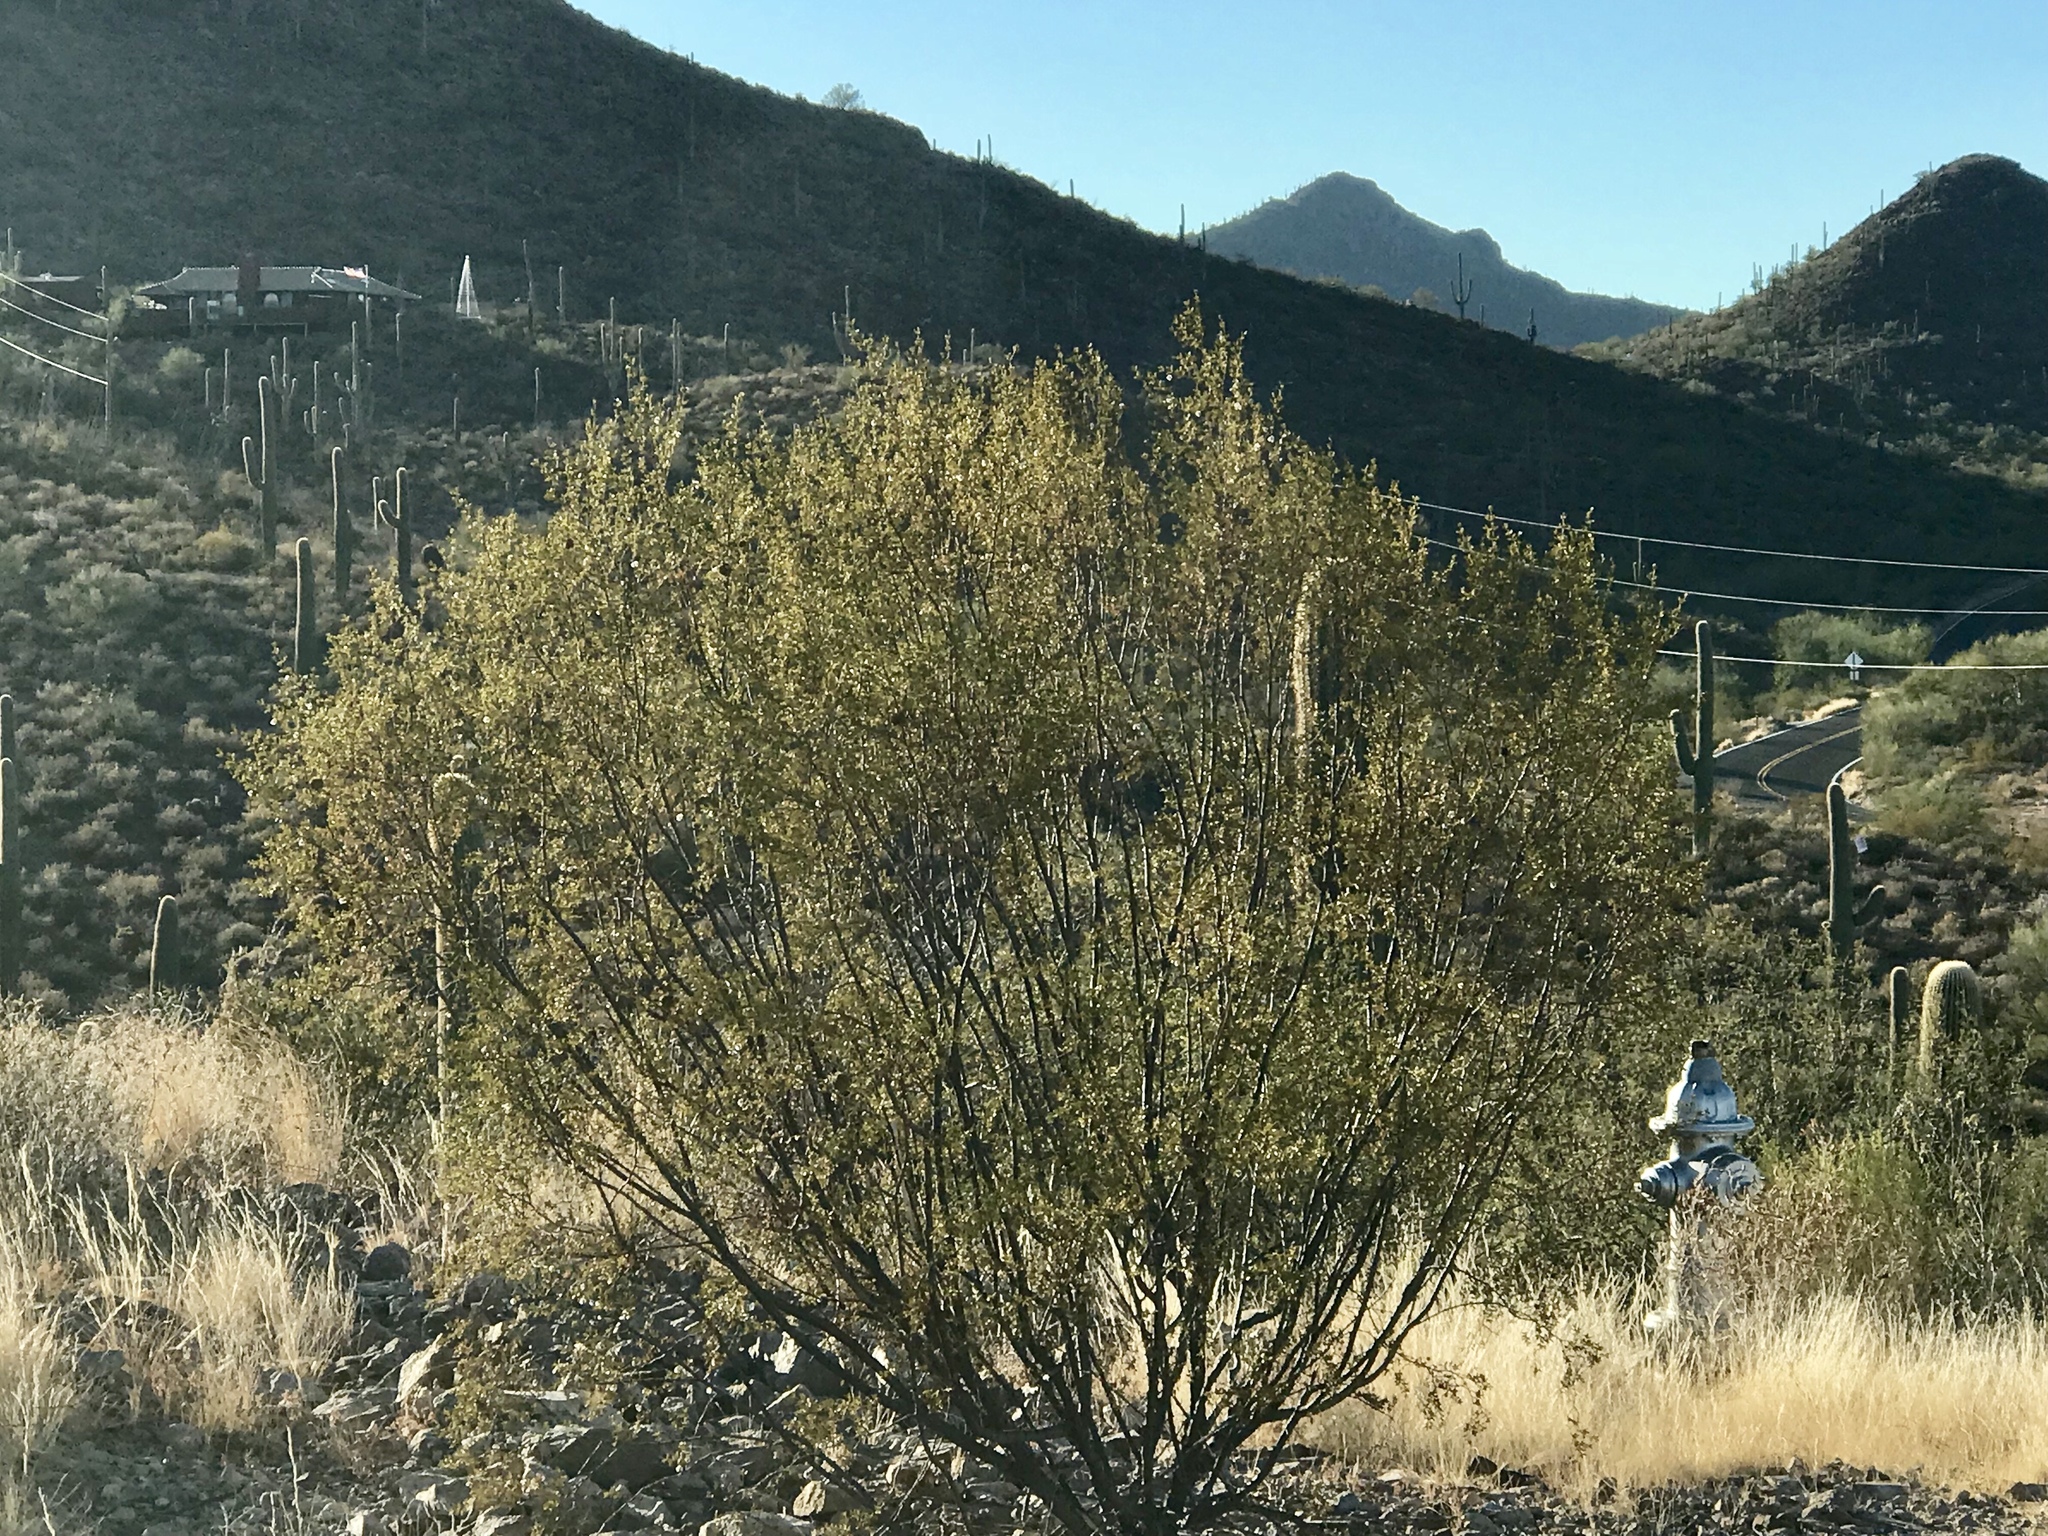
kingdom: Plantae
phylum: Tracheophyta
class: Magnoliopsida
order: Zygophyllales
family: Zygophyllaceae
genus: Larrea
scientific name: Larrea tridentata
